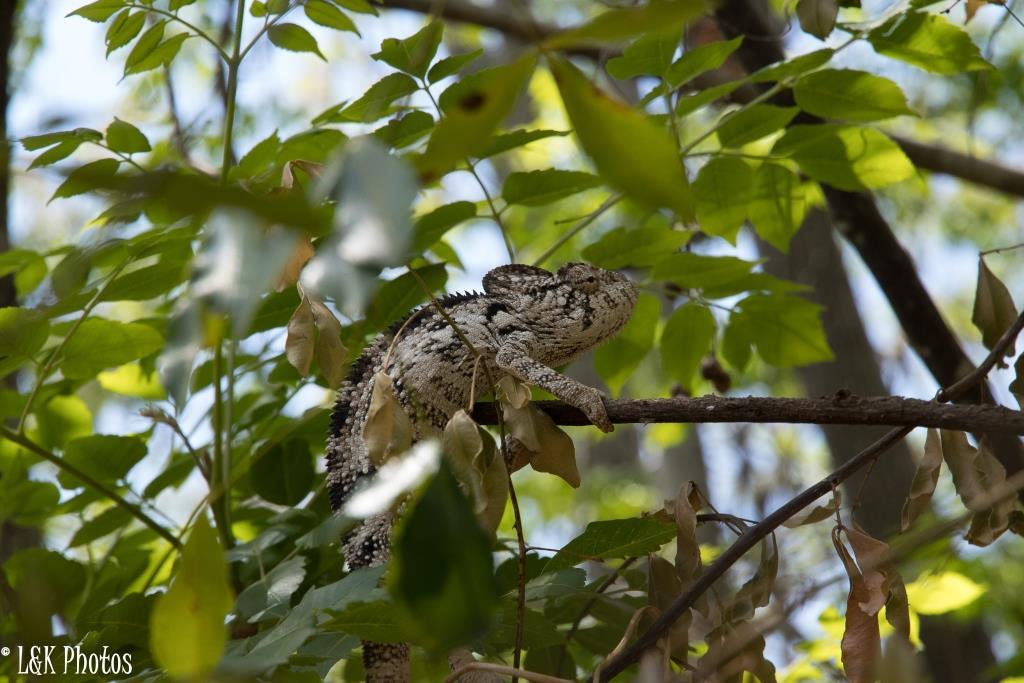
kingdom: Animalia
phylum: Chordata
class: Squamata
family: Chamaeleonidae
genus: Furcifer
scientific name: Furcifer oustaleti
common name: Oustalet's chameleon
